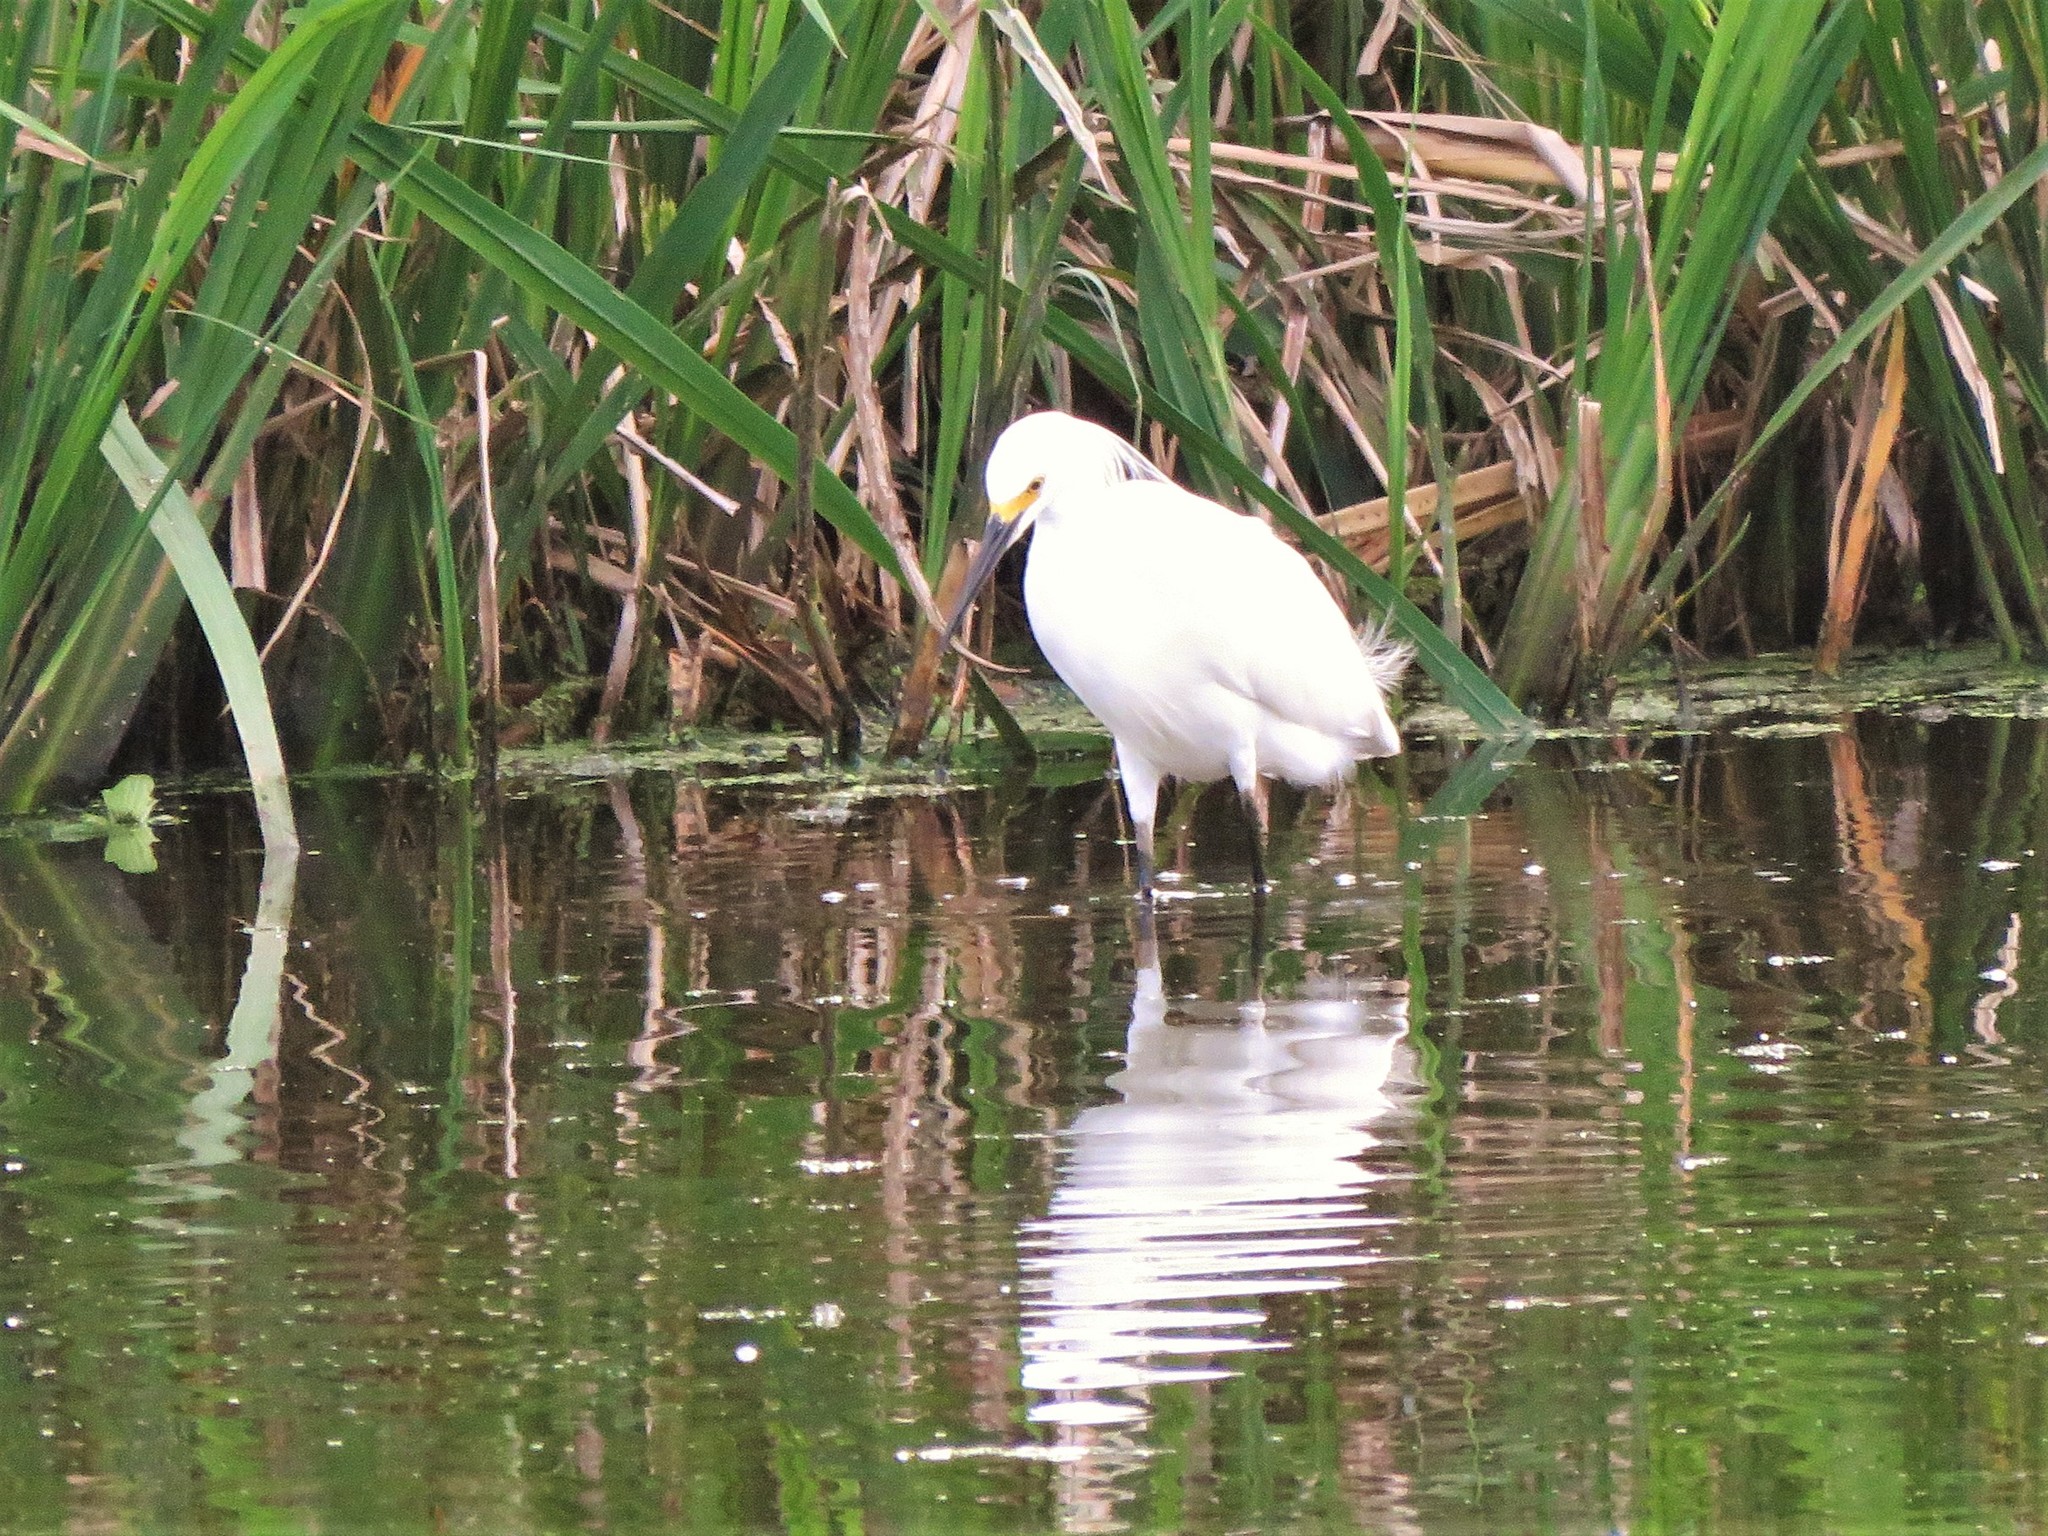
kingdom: Animalia
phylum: Chordata
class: Aves
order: Pelecaniformes
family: Ardeidae
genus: Egretta
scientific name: Egretta thula
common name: Snowy egret
